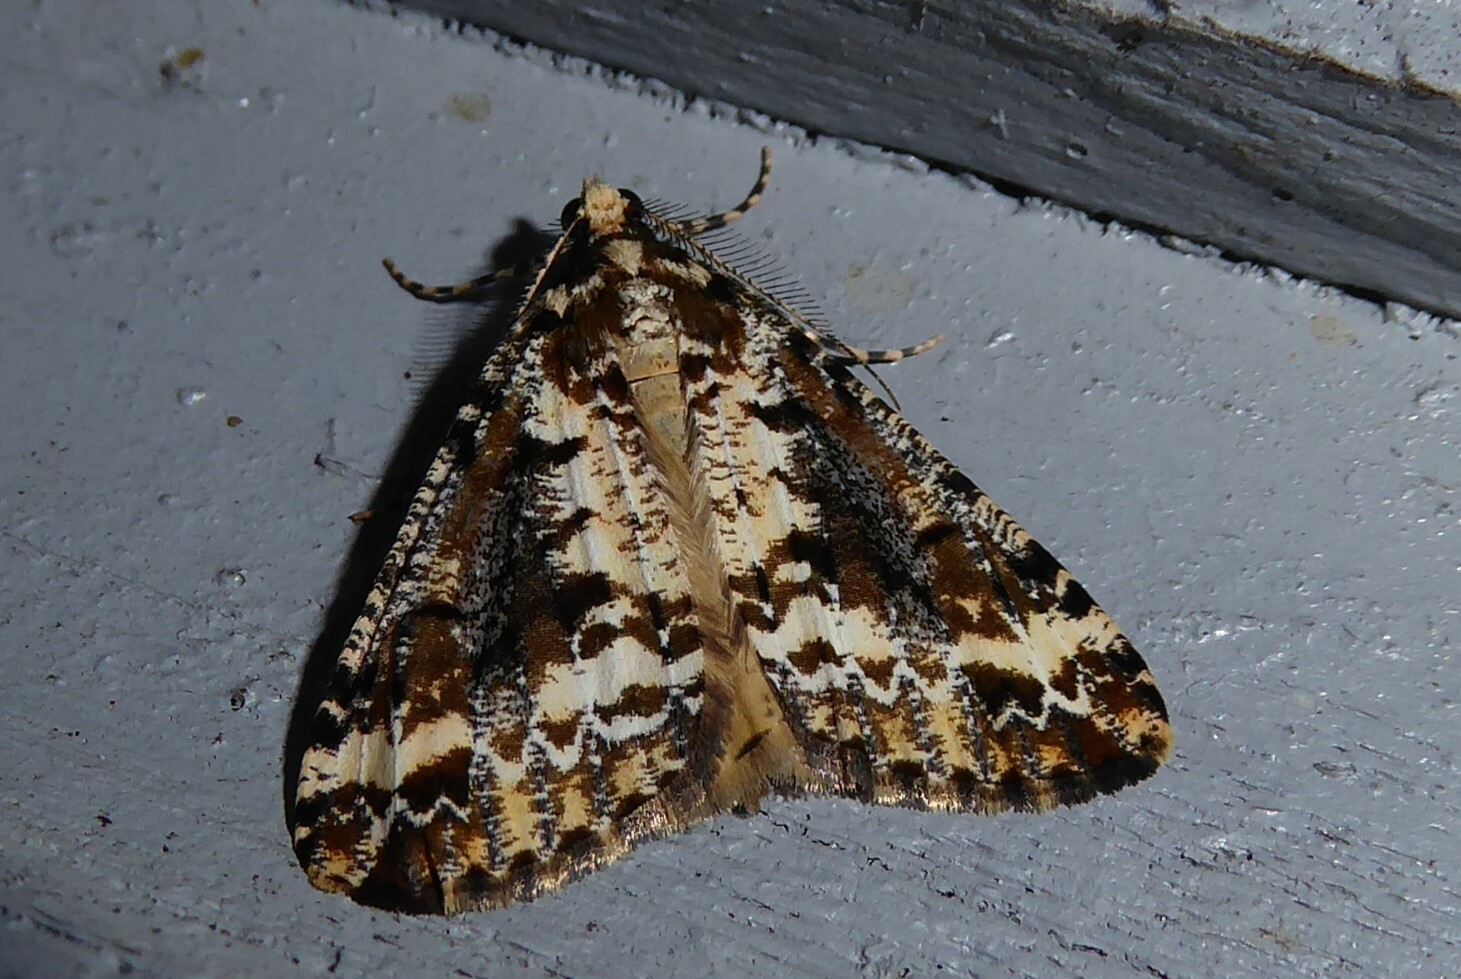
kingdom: Animalia
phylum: Arthropoda
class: Insecta
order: Lepidoptera
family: Geometridae
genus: Pseudocoremia
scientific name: Pseudocoremia leucelaea
